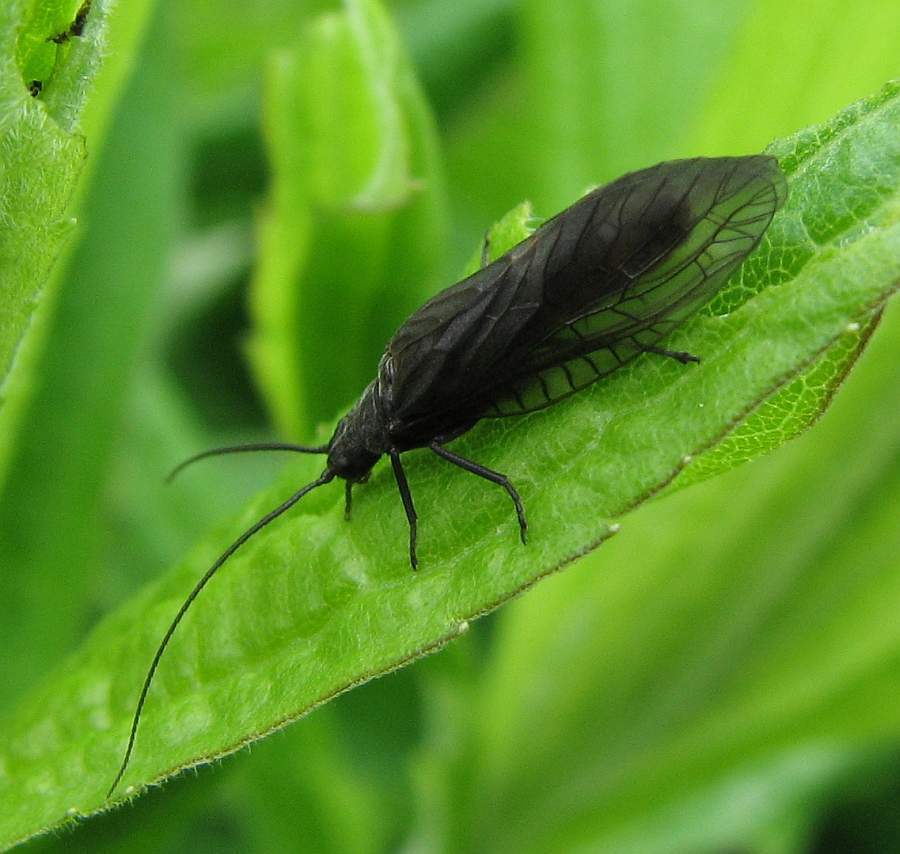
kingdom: Animalia
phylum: Arthropoda
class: Insecta
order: Megaloptera
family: Sialidae
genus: Sialis
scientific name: Sialis
